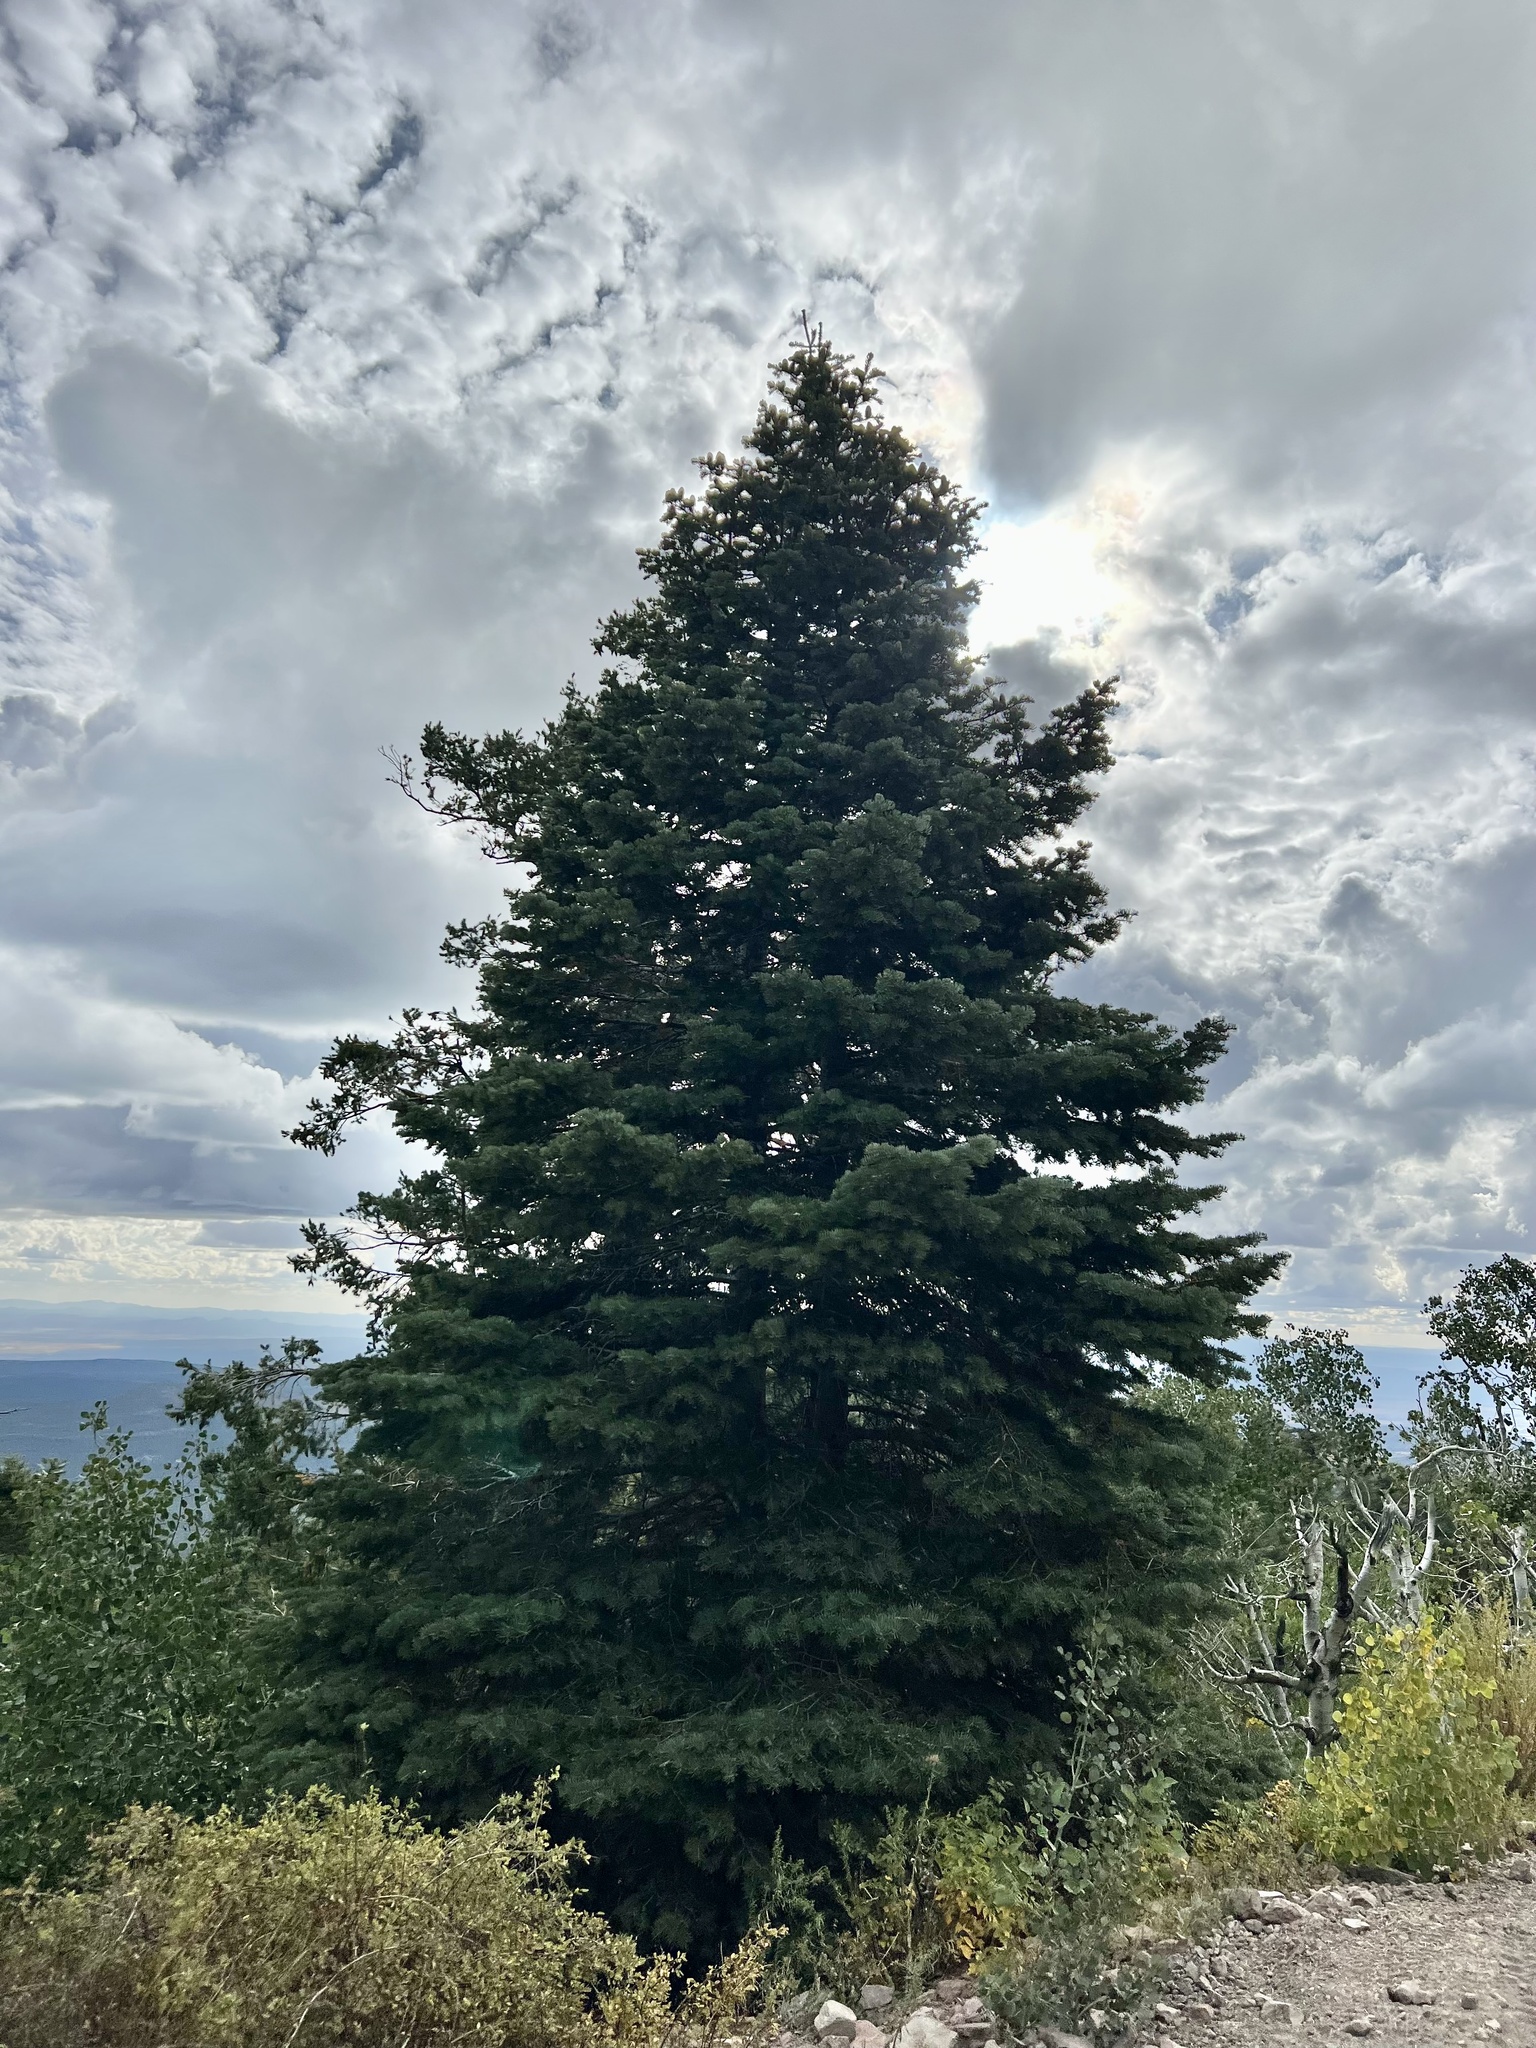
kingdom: Plantae
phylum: Tracheophyta
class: Pinopsida
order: Pinales
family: Pinaceae
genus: Abies
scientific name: Abies concolor
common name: Colorado fir
